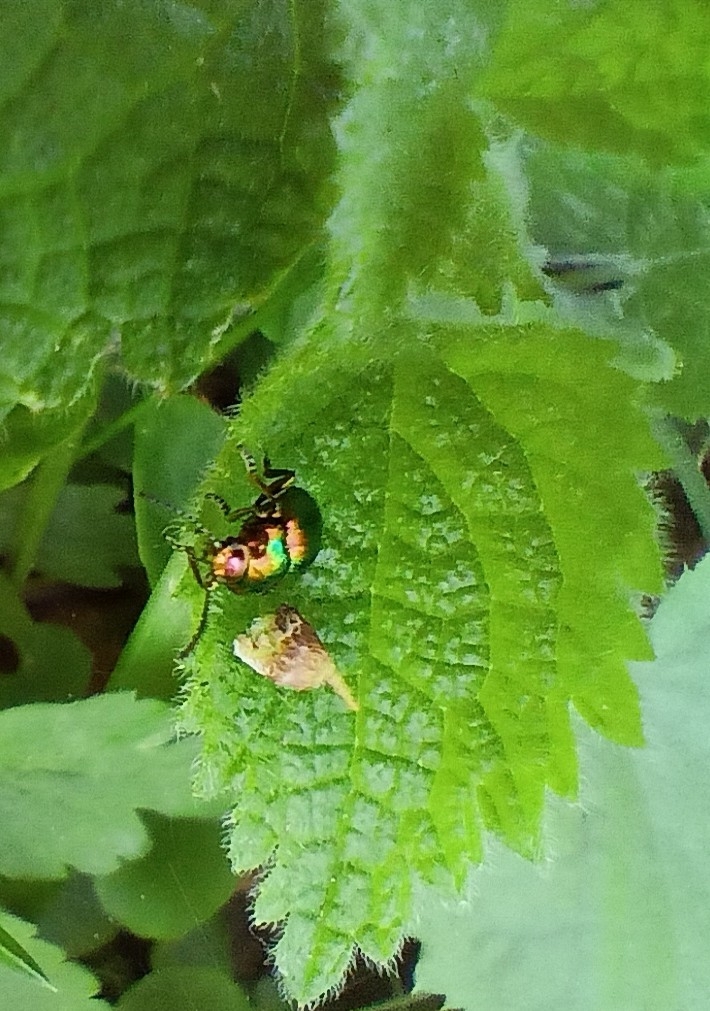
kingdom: Animalia
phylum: Arthropoda
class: Insecta
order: Coleoptera
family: Chrysomelidae
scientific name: Chrysomelidae
